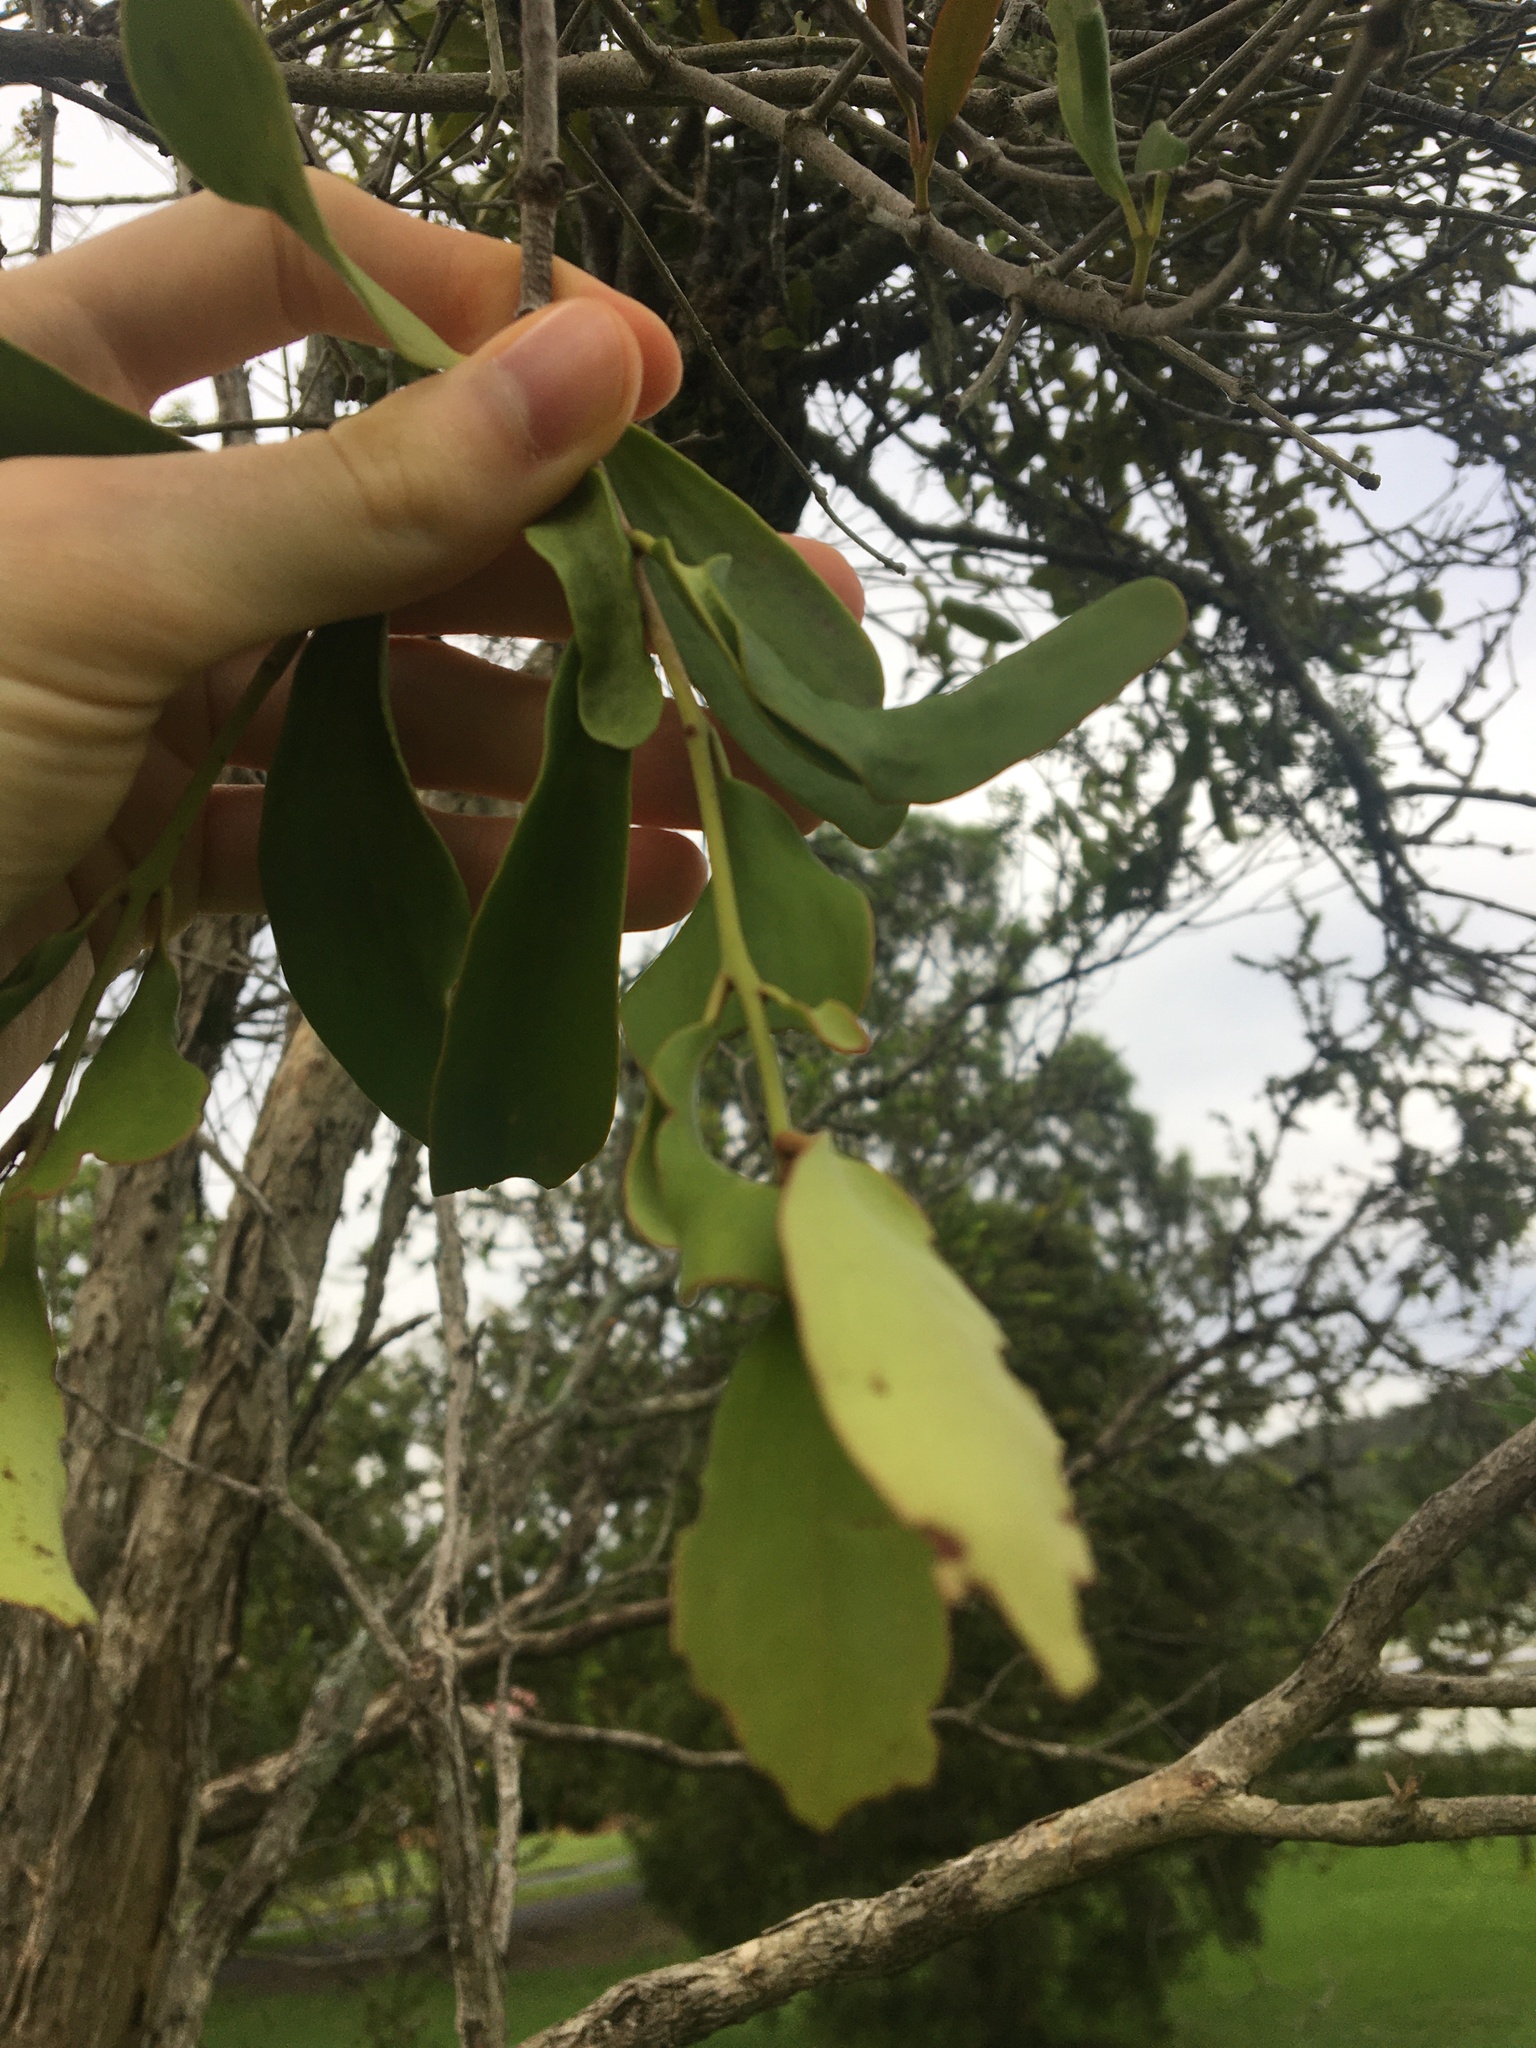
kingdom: Plantae
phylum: Tracheophyta
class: Magnoliopsida
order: Santalales
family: Loranthaceae
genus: Dendrophthoe
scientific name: Dendrophthoe vitellina
